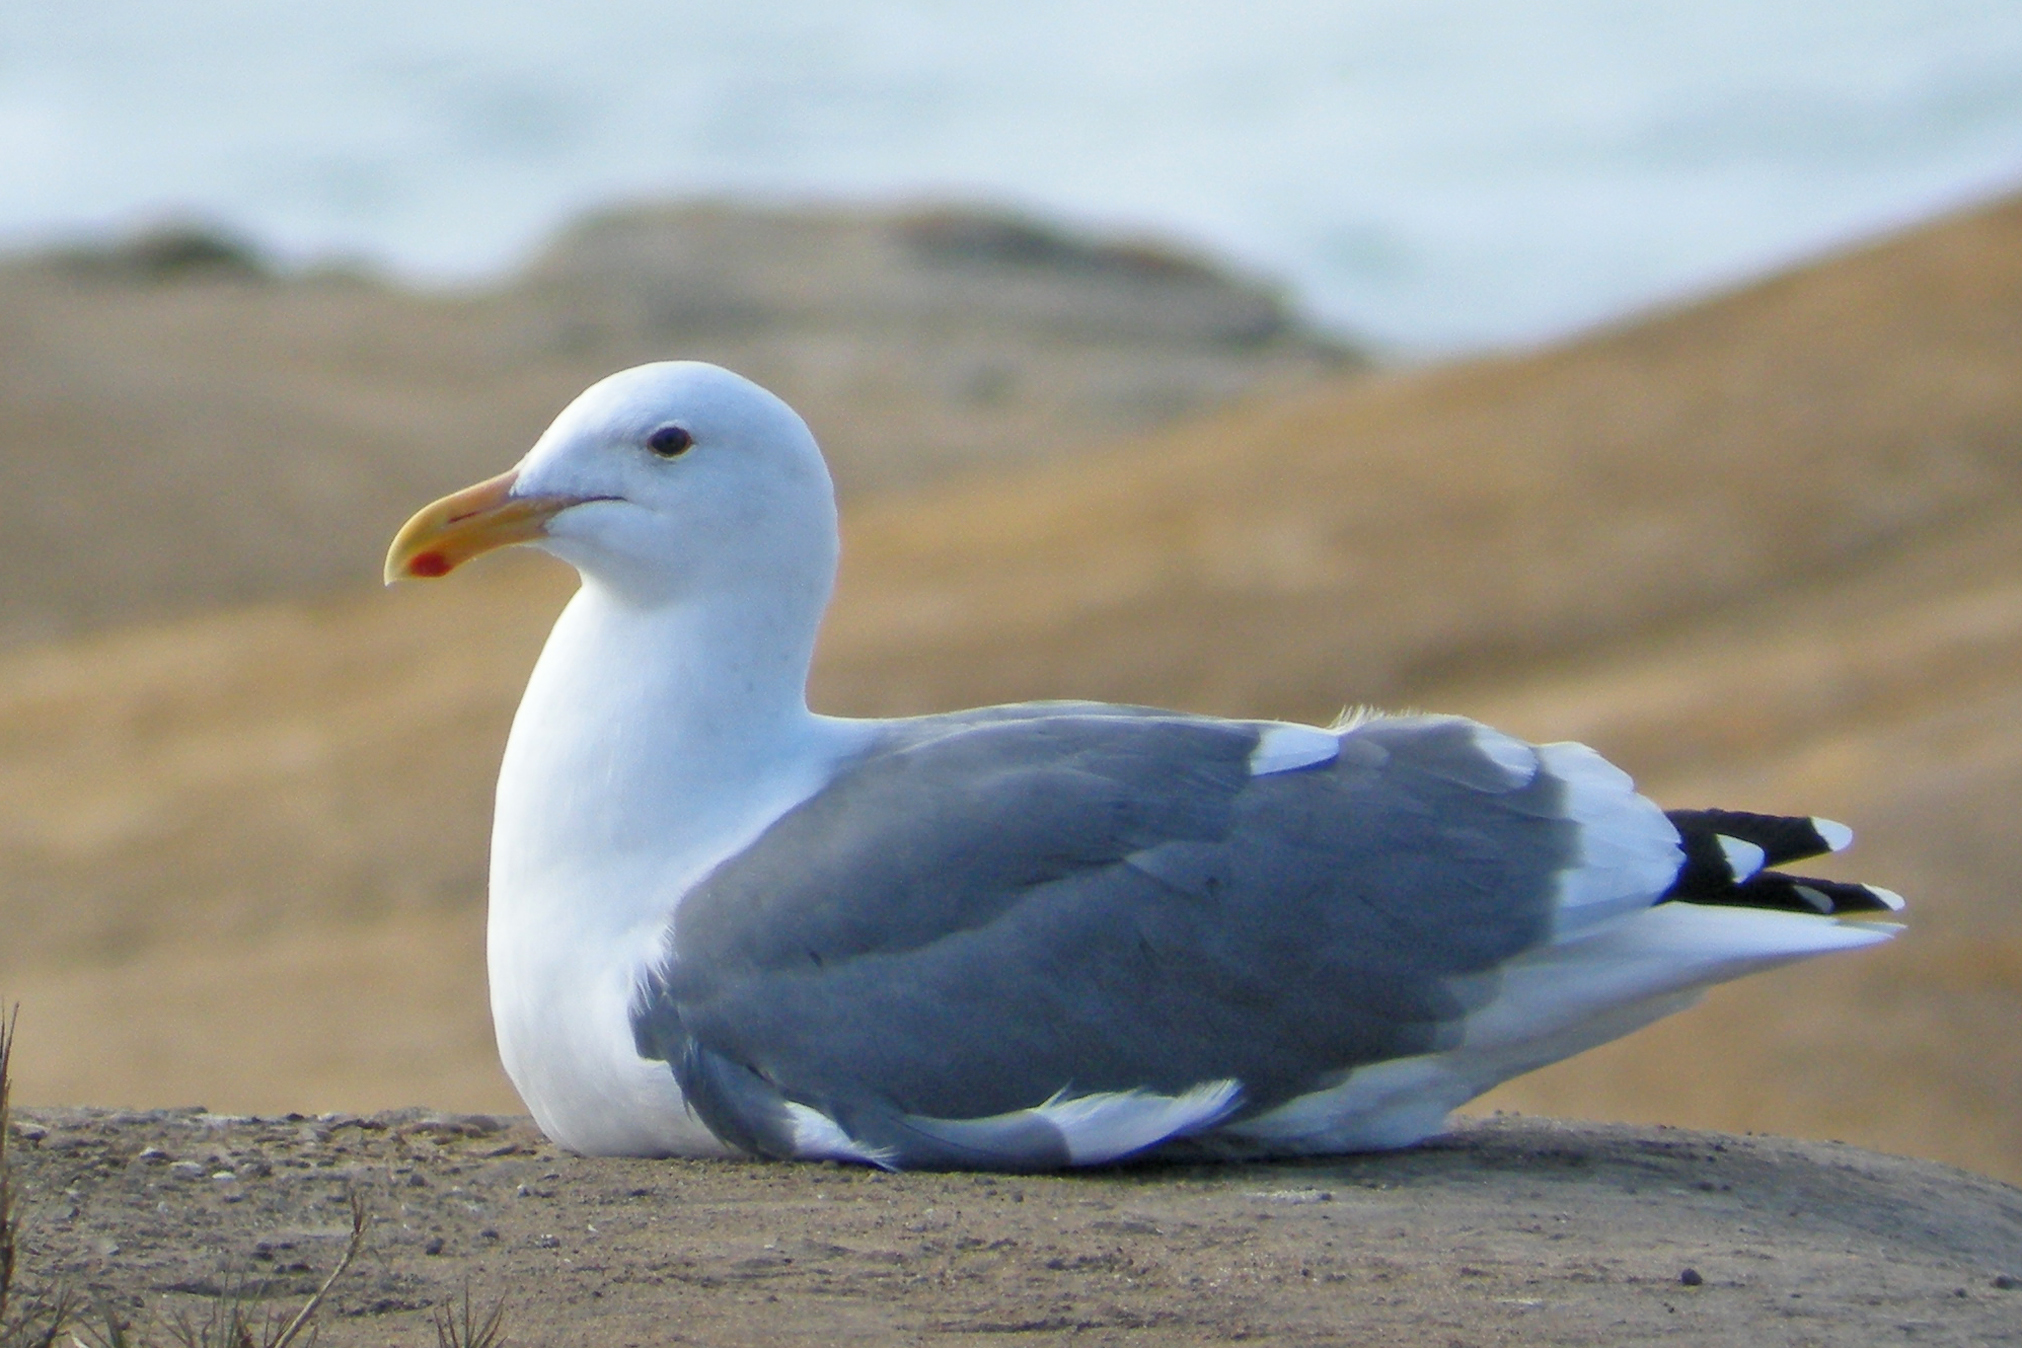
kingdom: Animalia
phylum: Chordata
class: Aves
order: Charadriiformes
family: Laridae
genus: Larus
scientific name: Larus occidentalis
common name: Western gull
